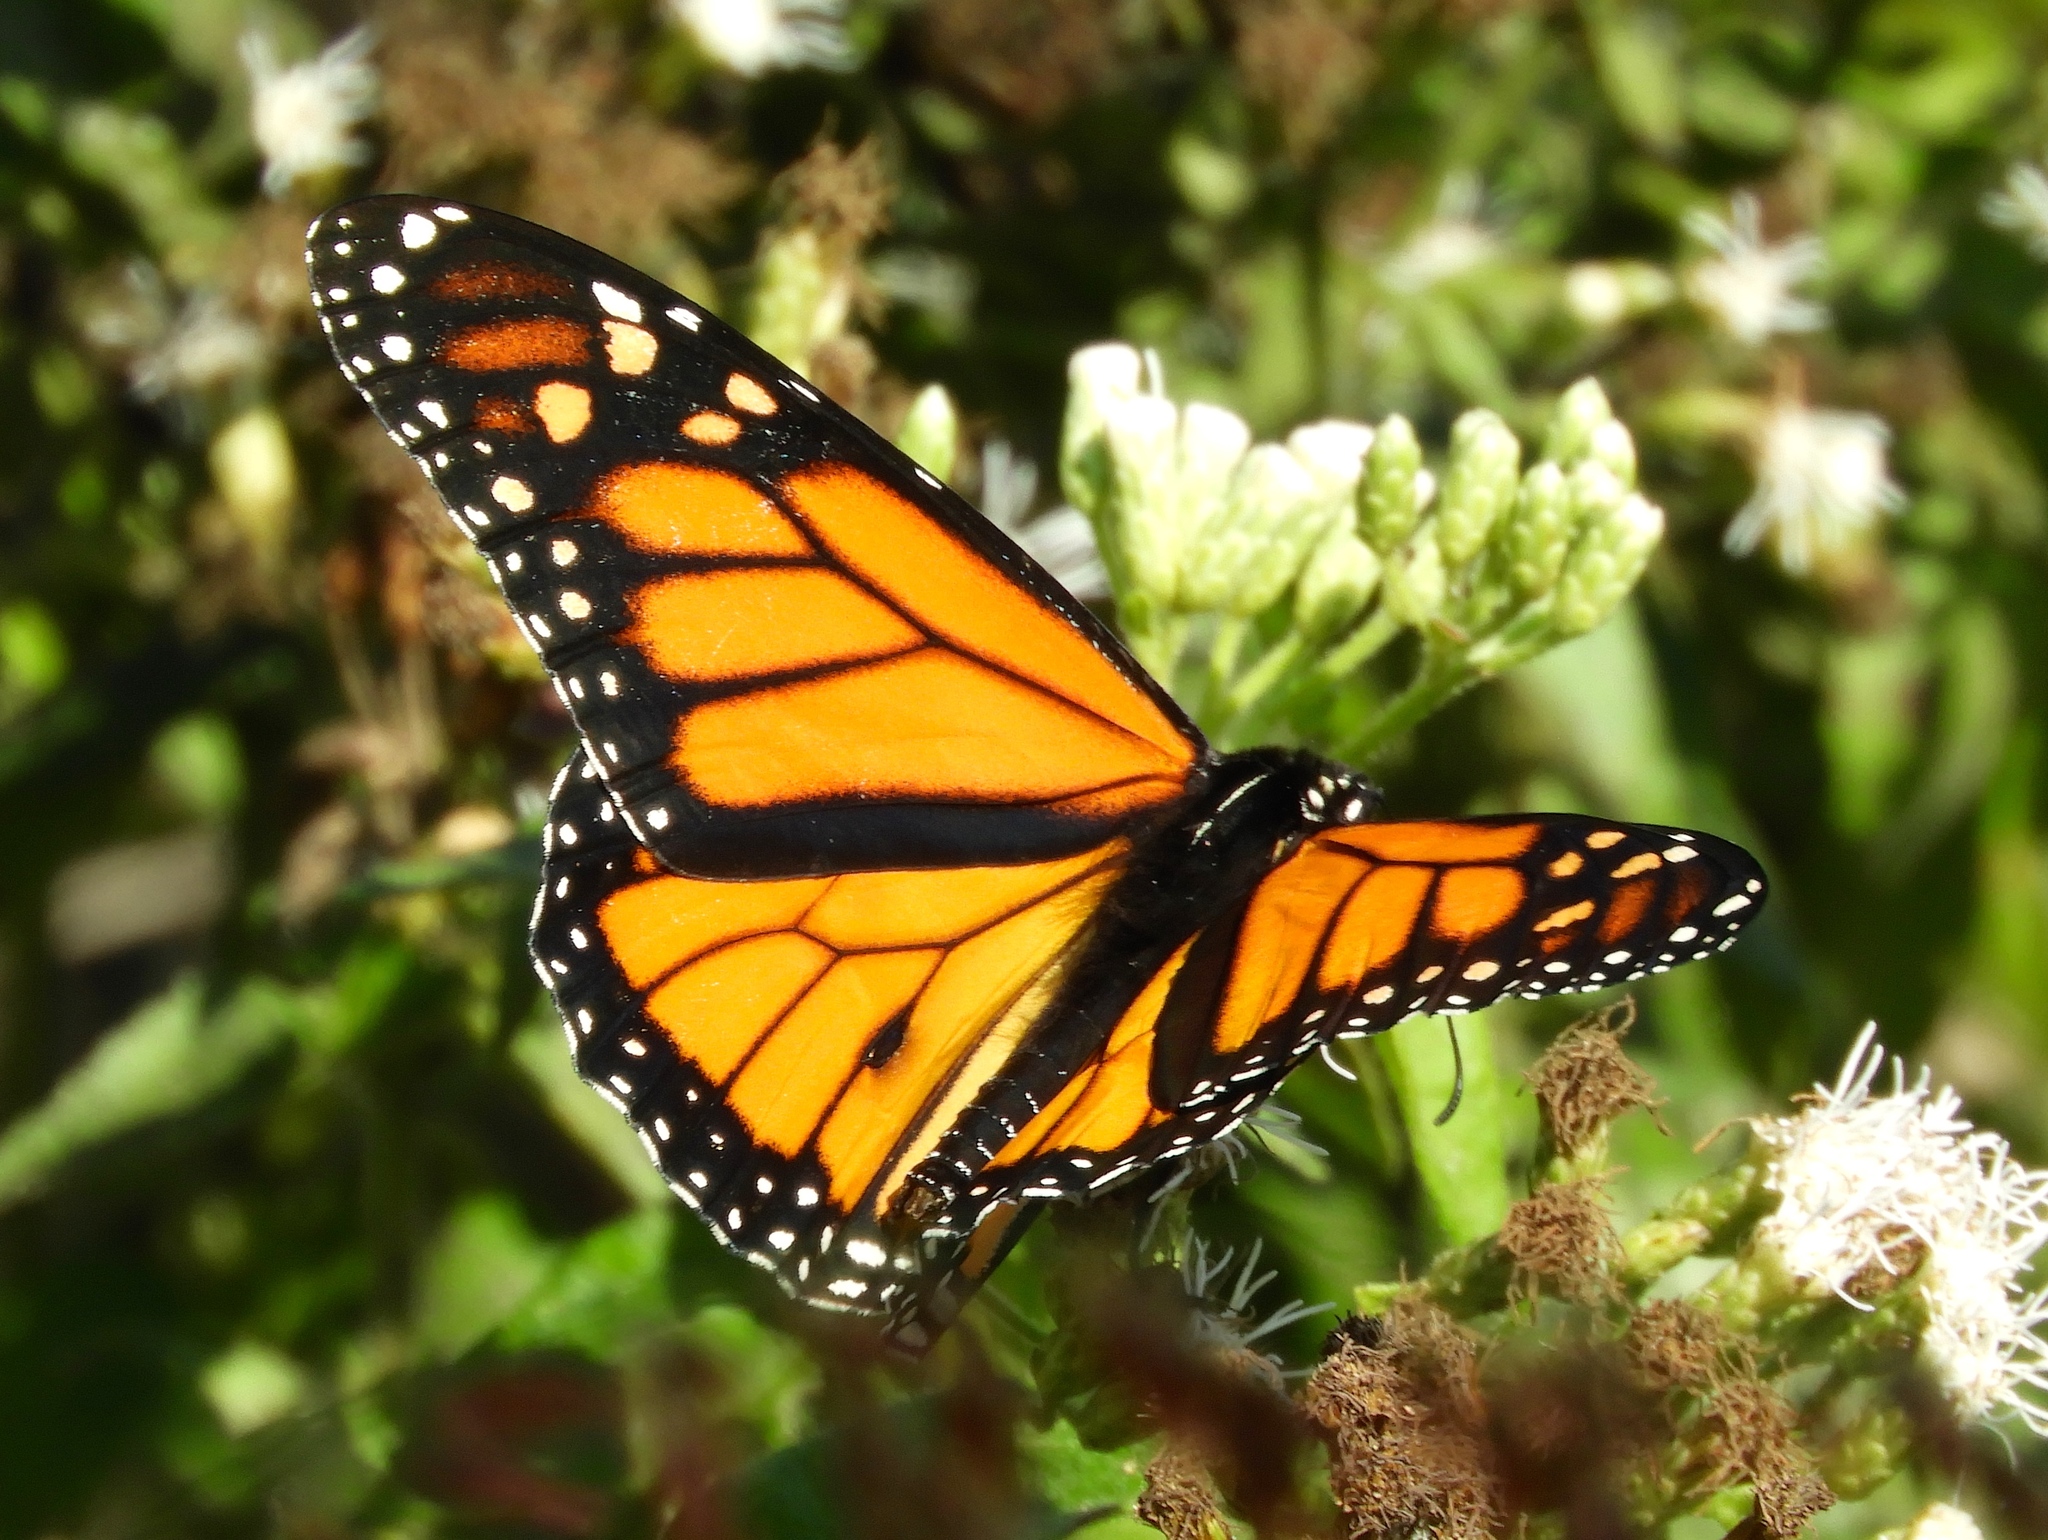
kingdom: Animalia
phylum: Arthropoda
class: Insecta
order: Lepidoptera
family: Nymphalidae
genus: Danaus
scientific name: Danaus plexippus
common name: Monarch
